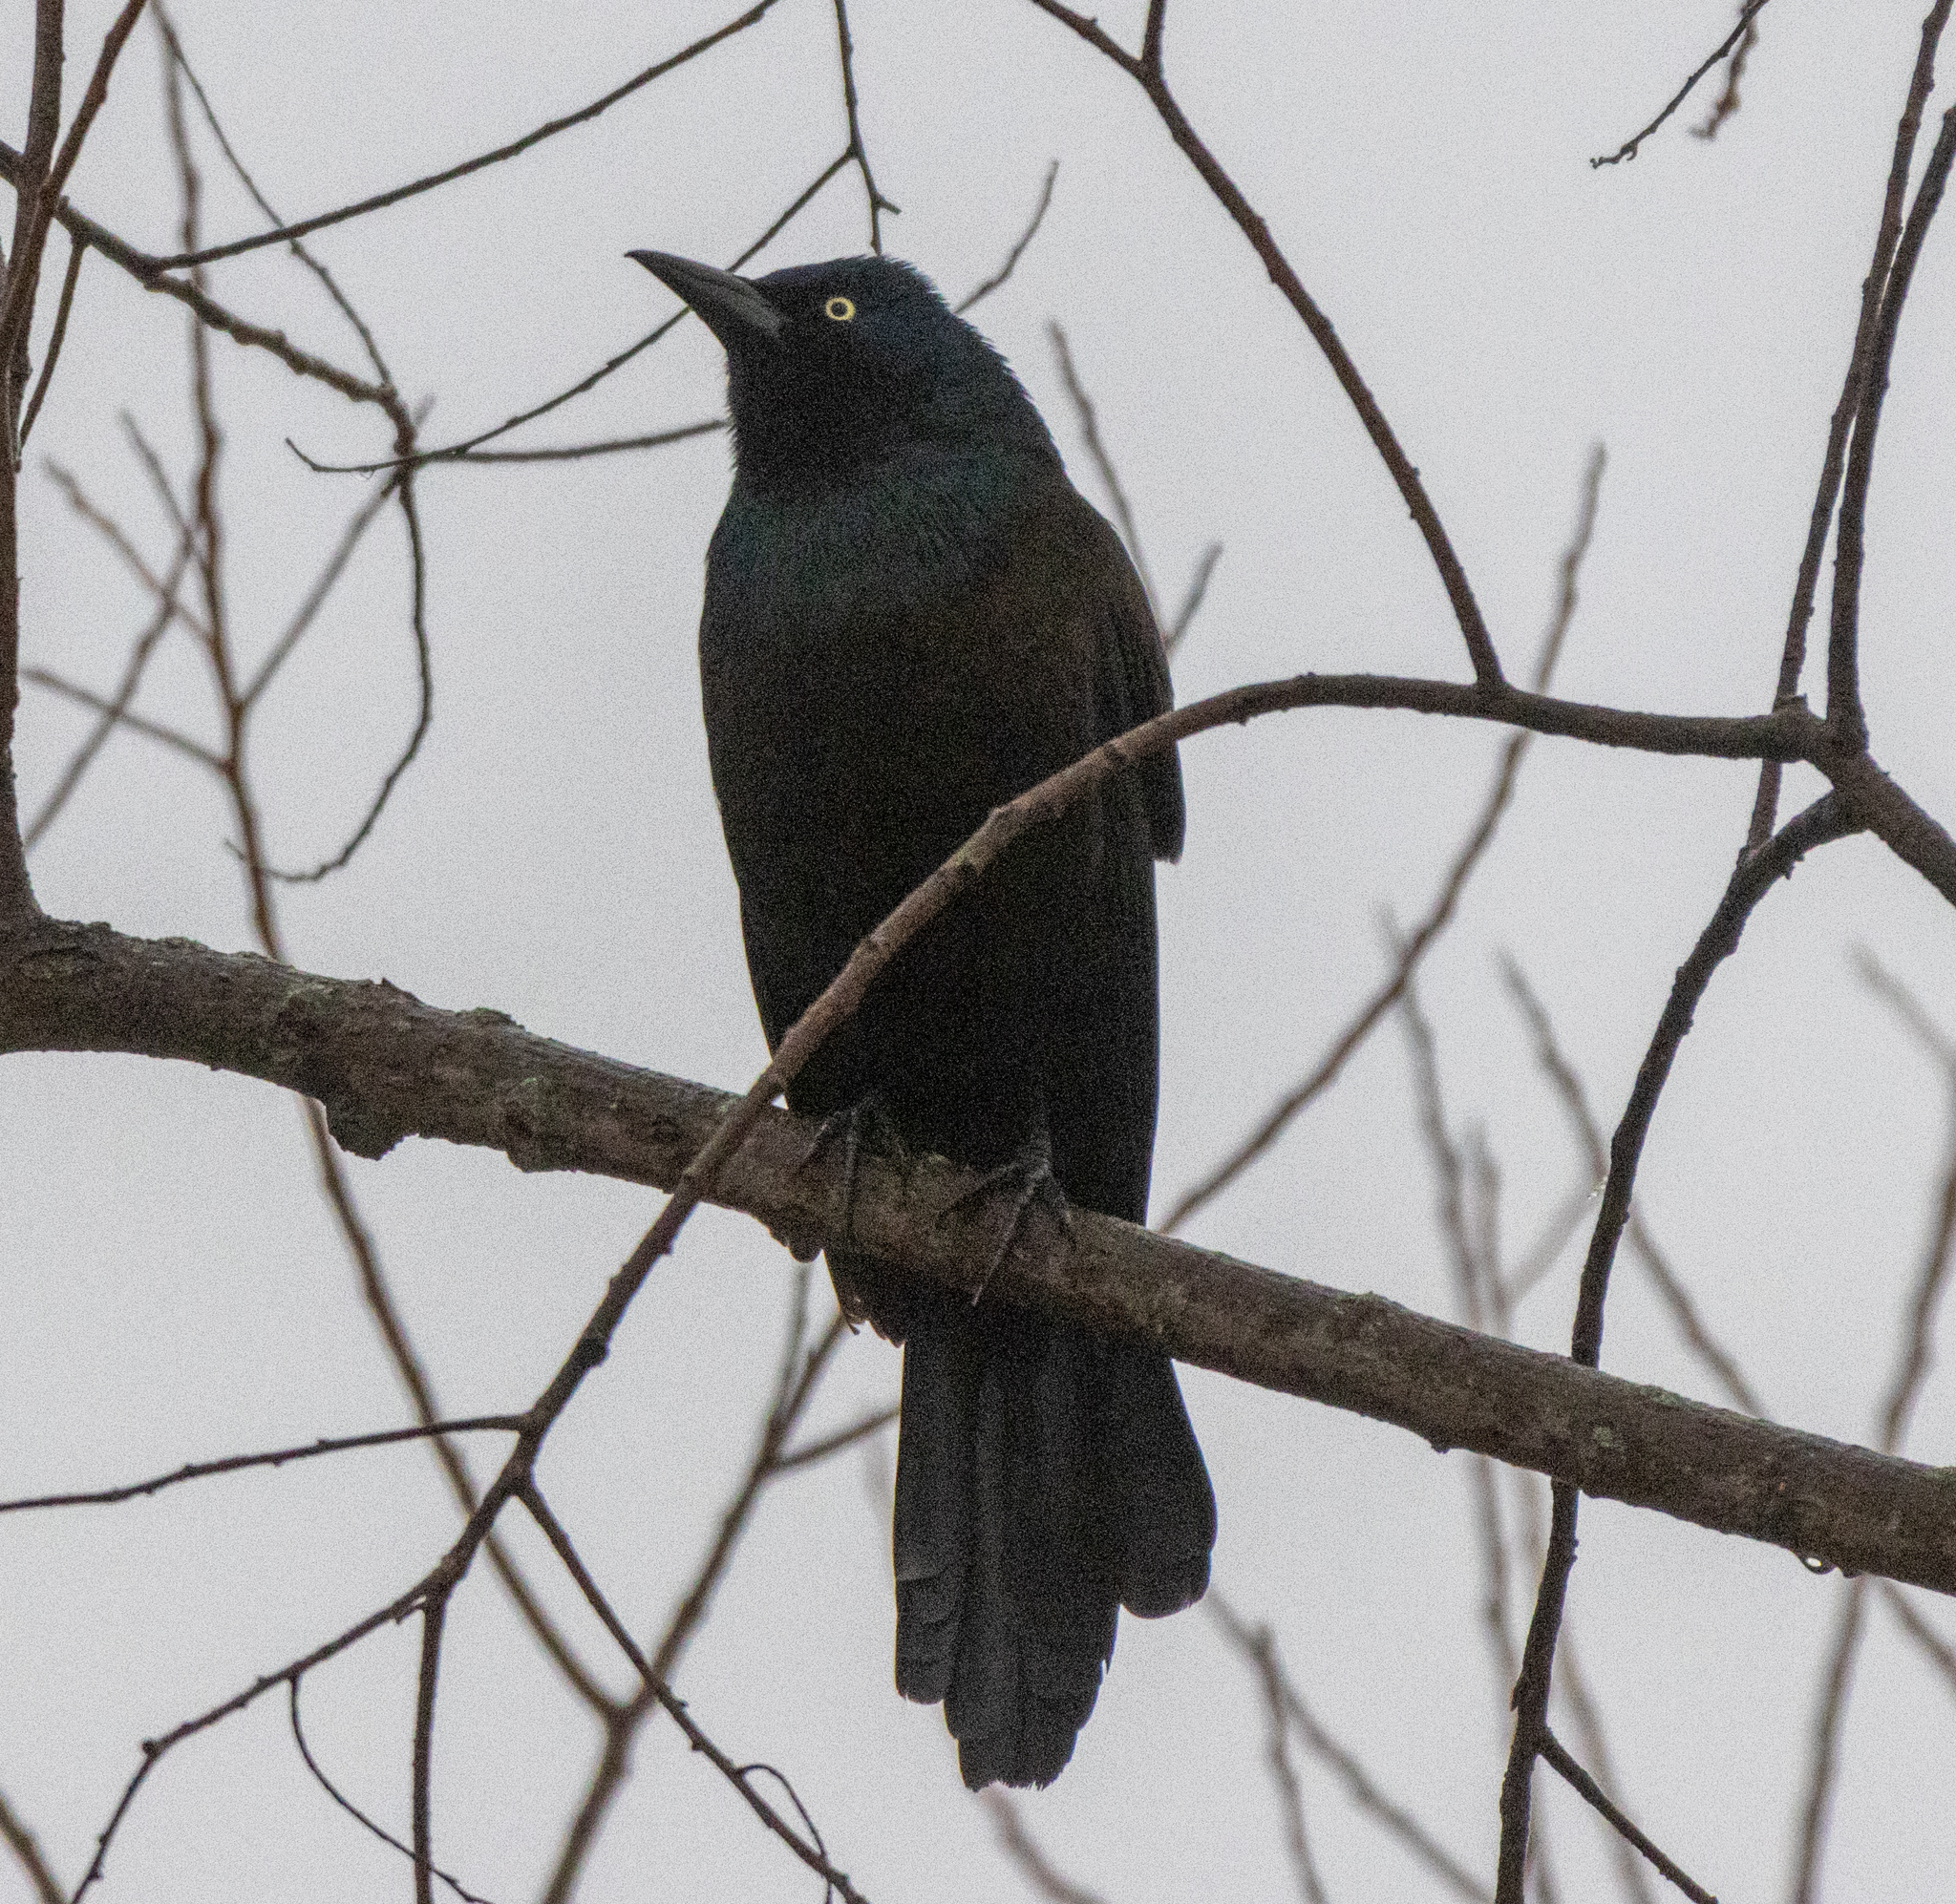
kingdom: Animalia
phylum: Chordata
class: Aves
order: Passeriformes
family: Icteridae
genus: Quiscalus
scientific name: Quiscalus quiscula
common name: Common grackle
